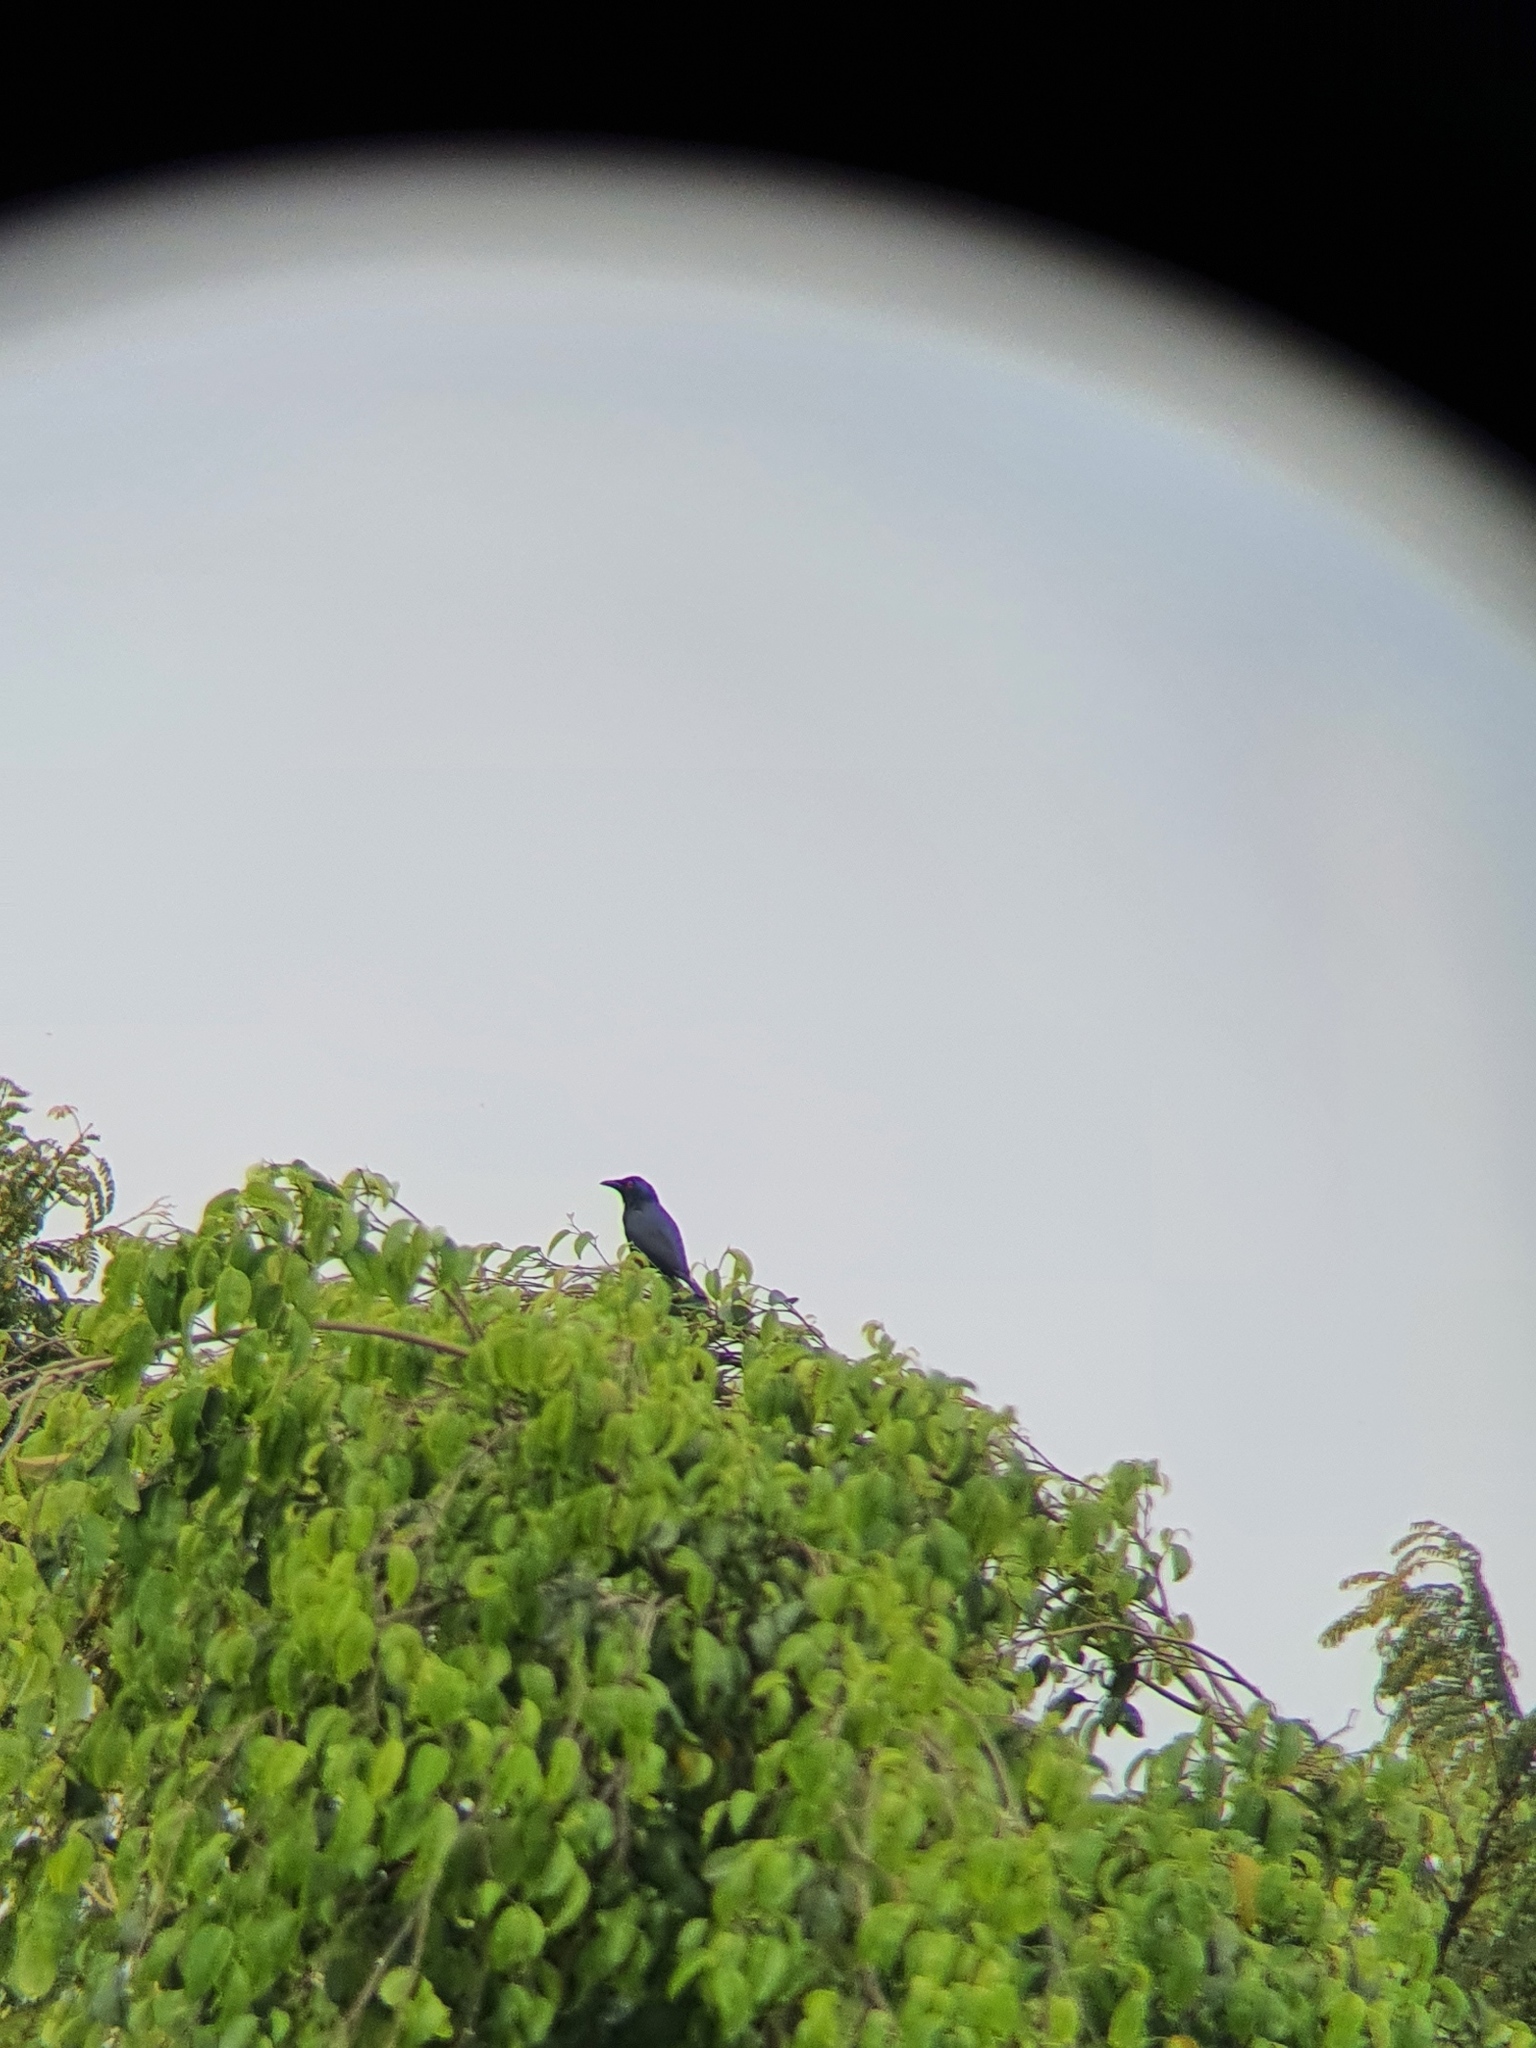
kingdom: Animalia
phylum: Chordata
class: Aves
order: Passeriformes
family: Sturnidae
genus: Aplonis
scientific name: Aplonis panayensis
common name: Asian glossy starling
